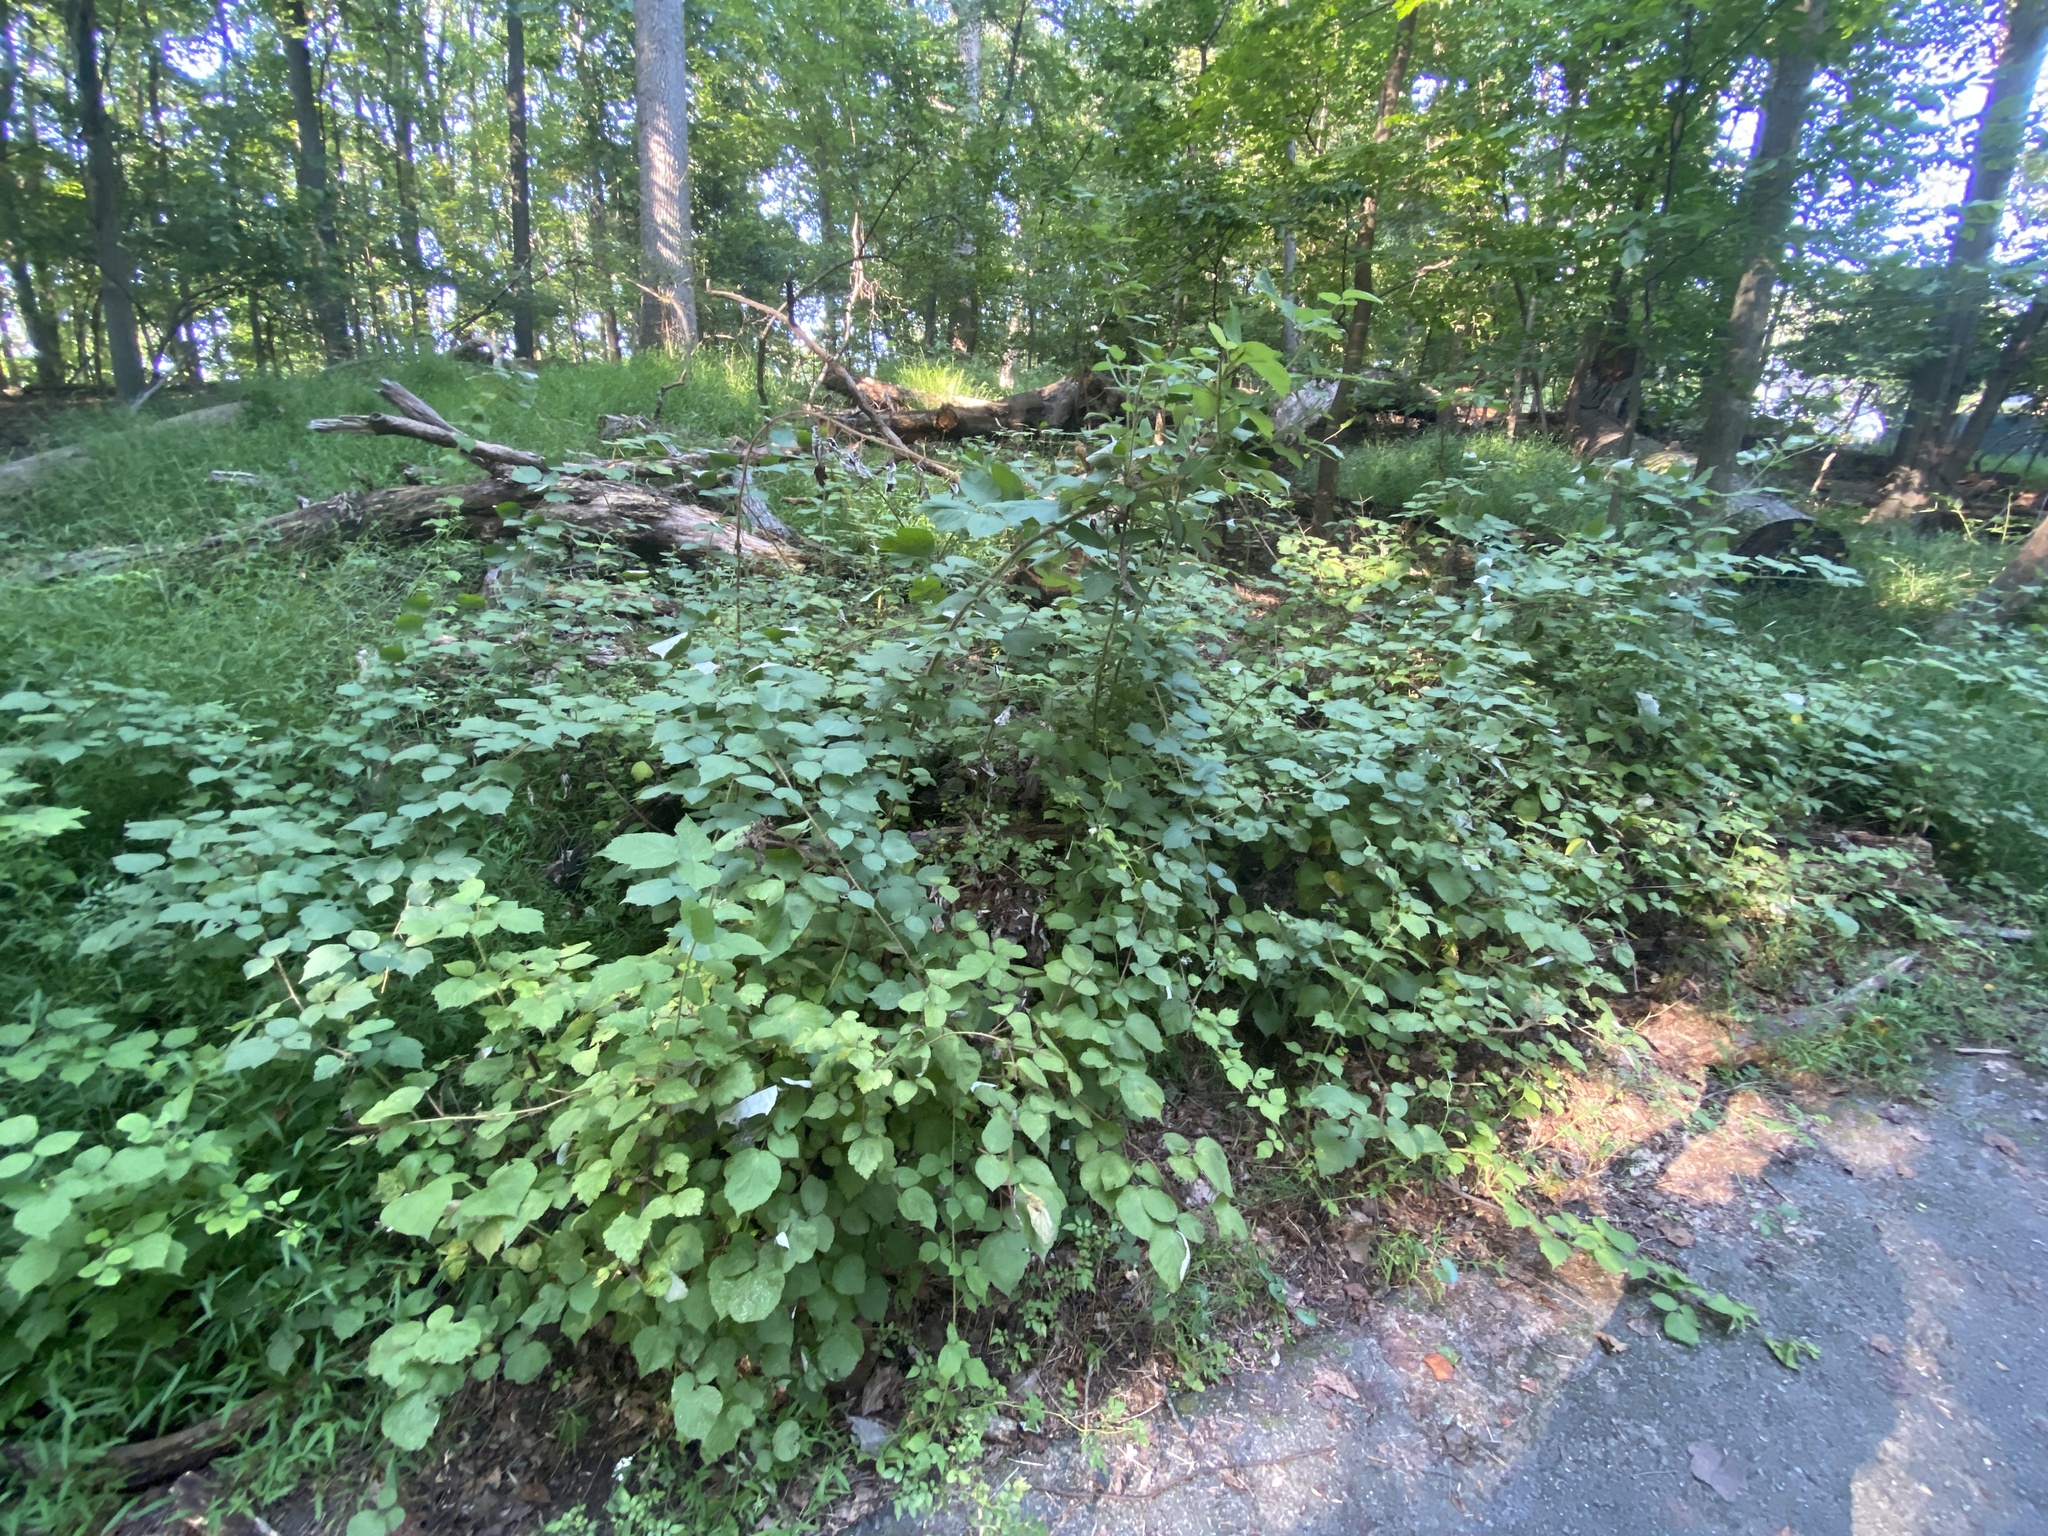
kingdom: Plantae
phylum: Tracheophyta
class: Magnoliopsida
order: Rosales
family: Rosaceae
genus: Rubus
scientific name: Rubus phoenicolasius
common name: Japanese wineberry
